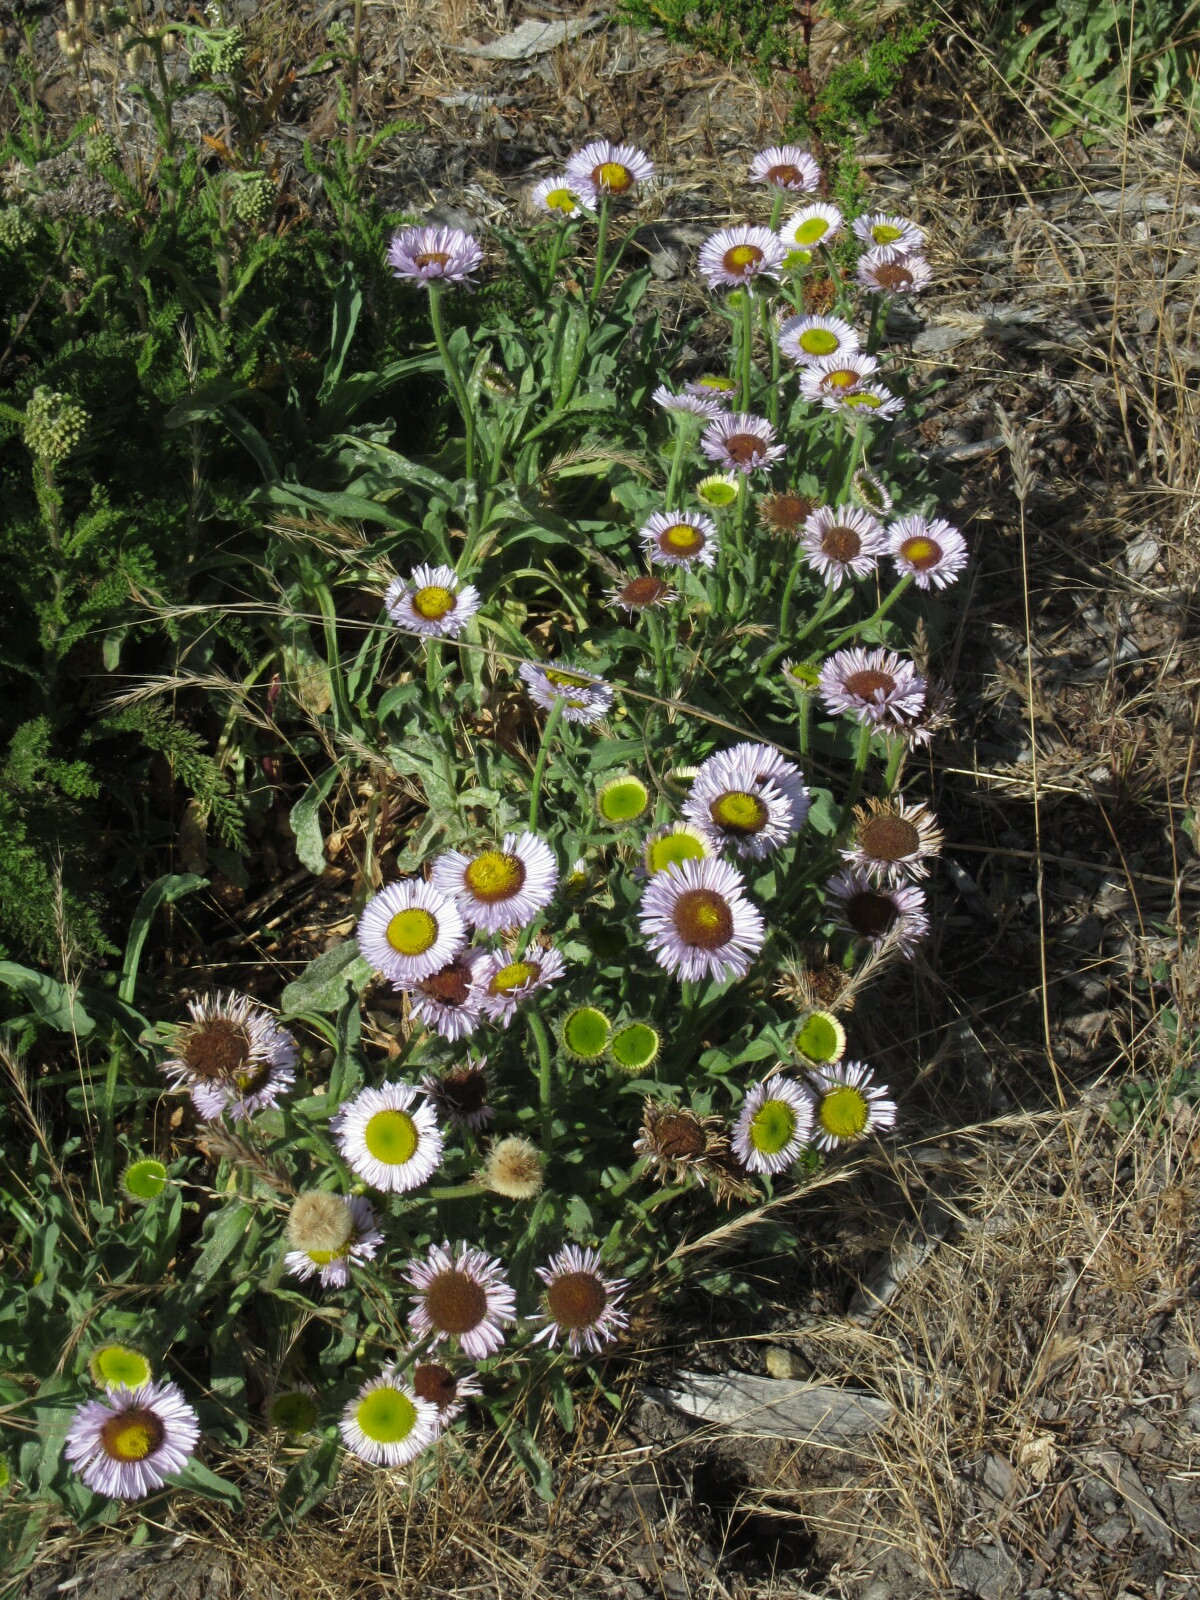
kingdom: Plantae
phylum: Tracheophyta
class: Magnoliopsida
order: Asterales
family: Asteraceae
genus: Erigeron
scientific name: Erigeron glaucus
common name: Seaside daisy
